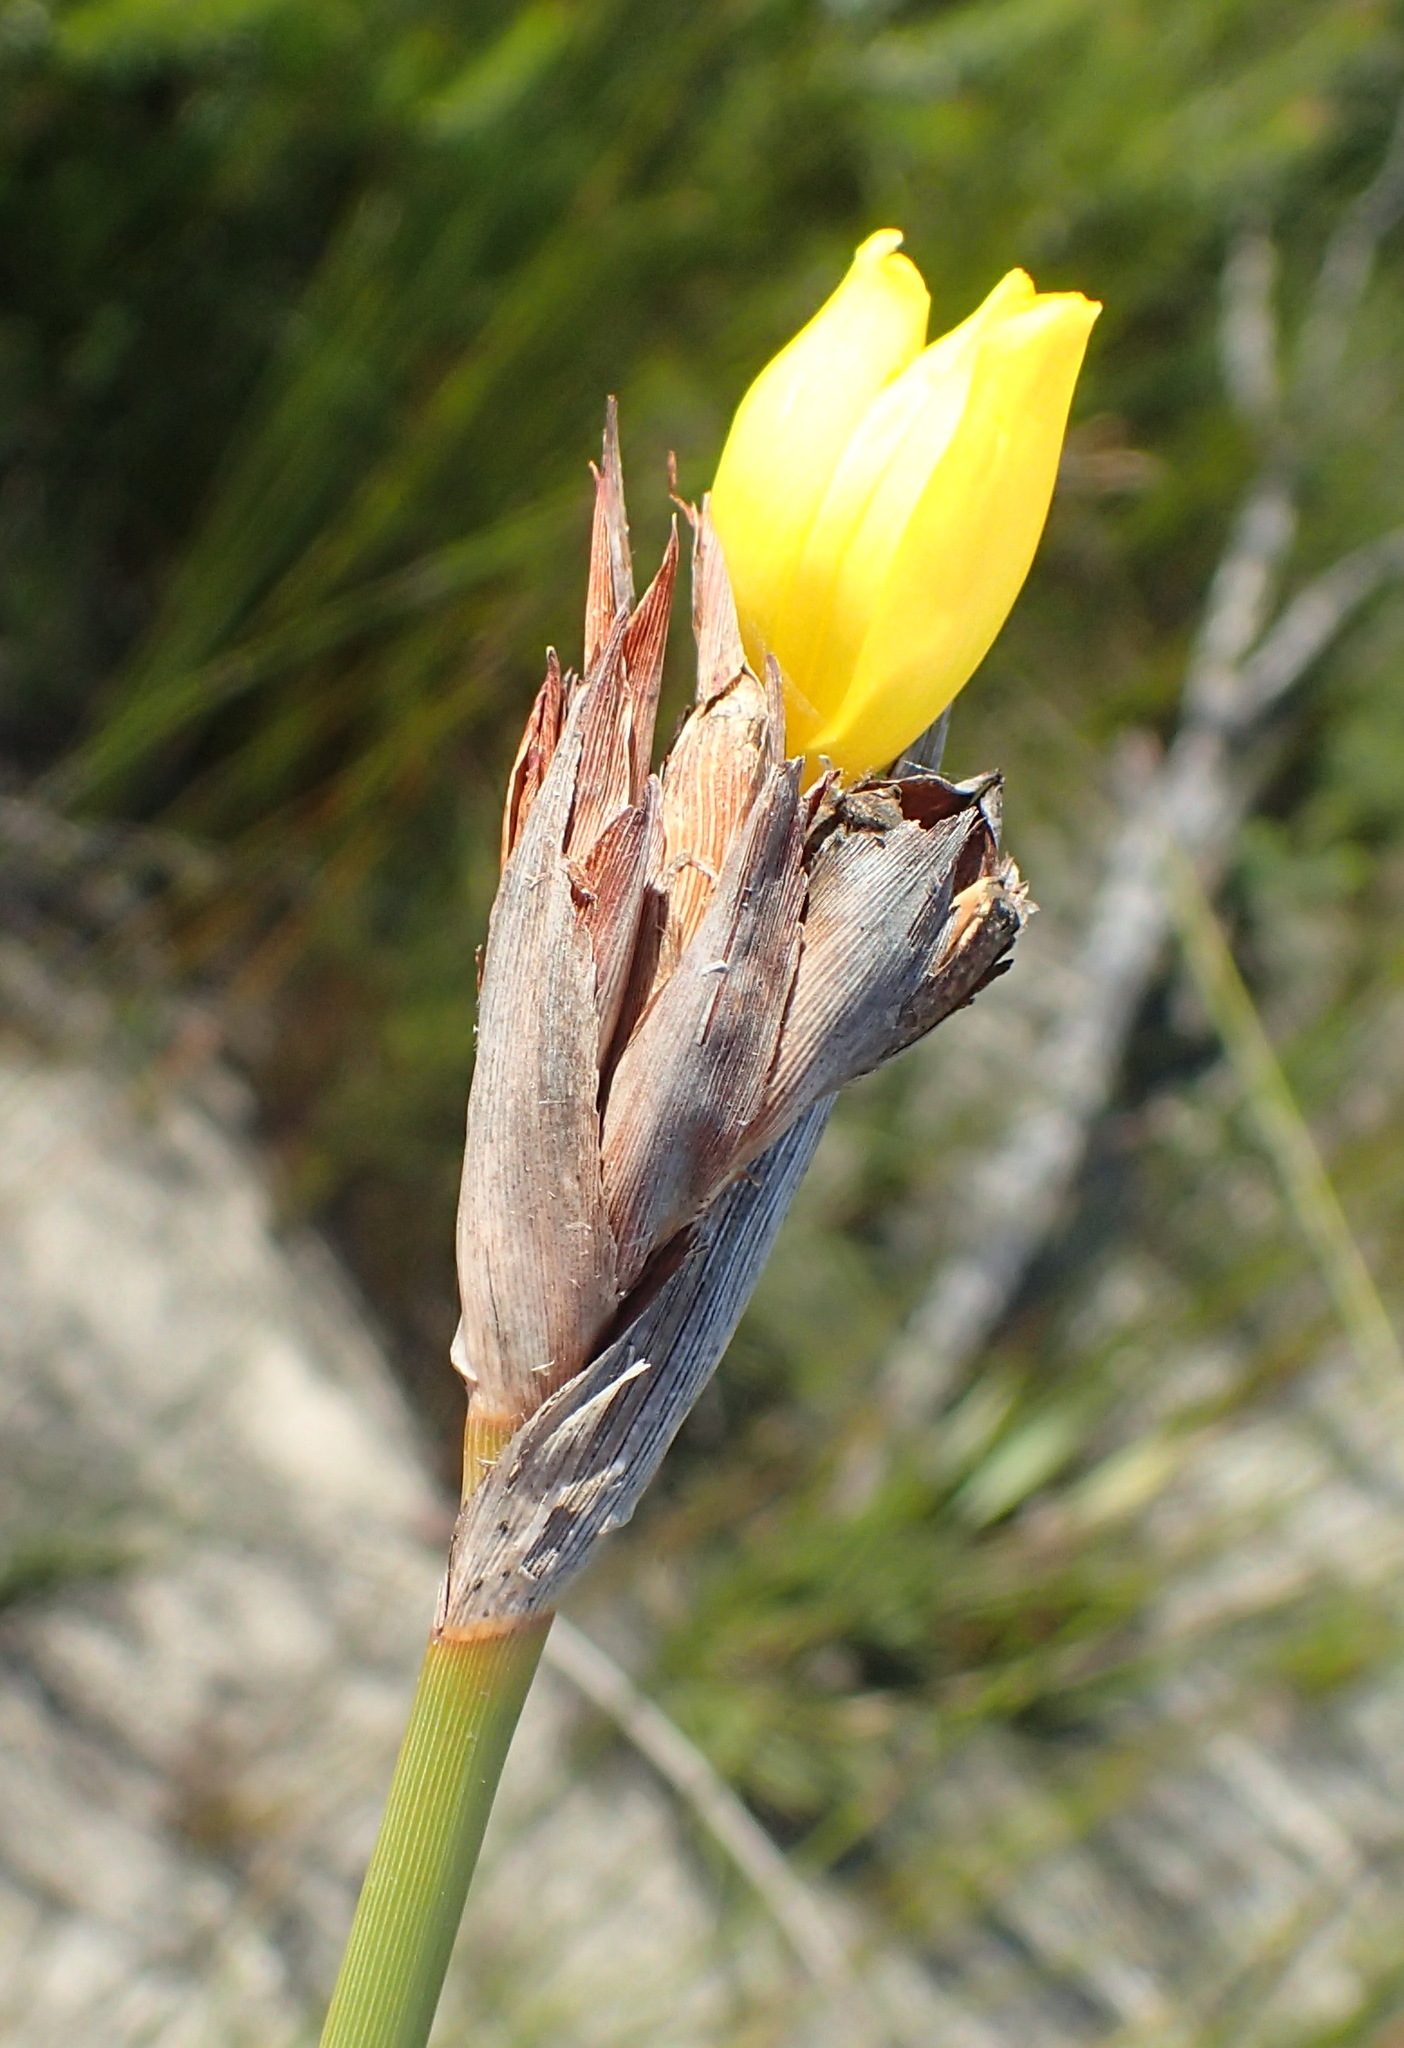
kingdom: Plantae
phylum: Tracheophyta
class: Liliopsida
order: Asparagales
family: Iridaceae
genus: Bobartia
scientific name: Bobartia macrospatha
